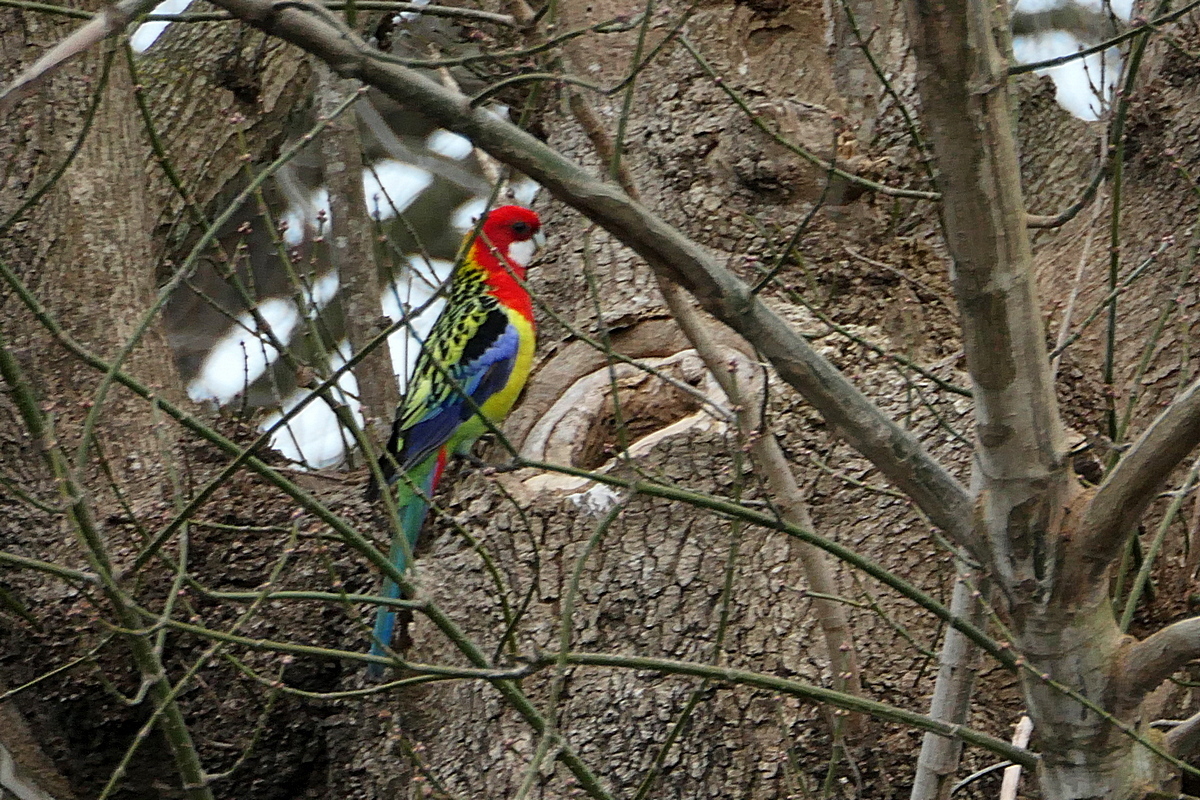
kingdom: Animalia
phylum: Chordata
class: Aves
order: Psittaciformes
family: Psittacidae
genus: Platycercus
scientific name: Platycercus eximius
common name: Eastern rosella
